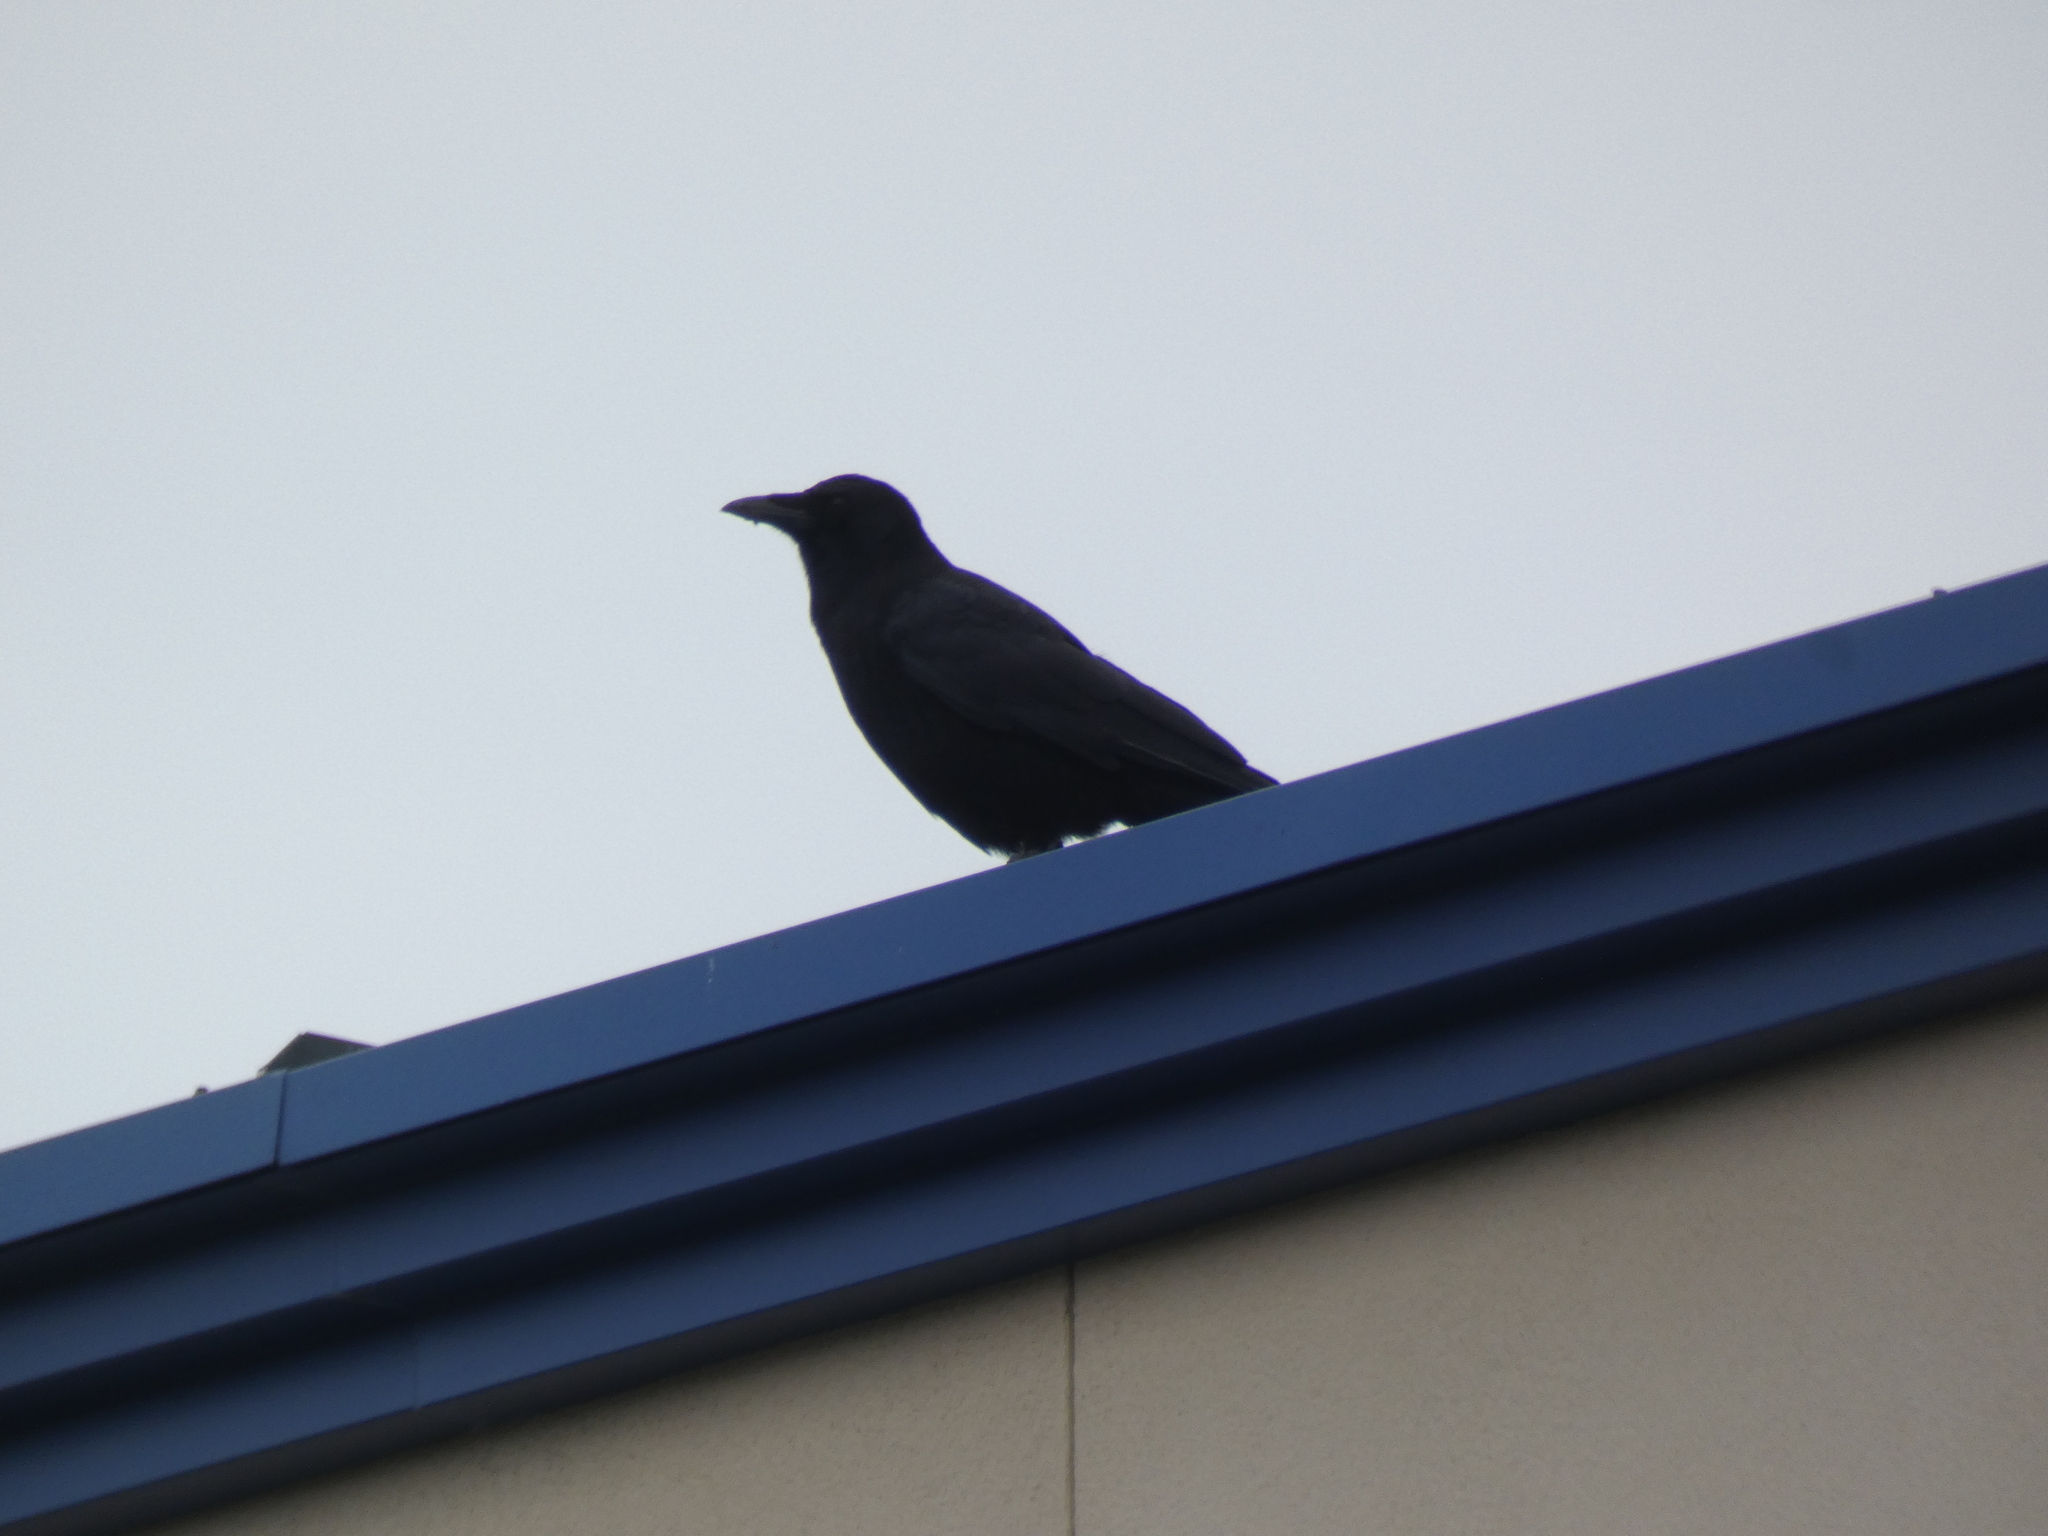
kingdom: Animalia
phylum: Chordata
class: Aves
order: Passeriformes
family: Corvidae
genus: Corvus
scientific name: Corvus brachyrhynchos
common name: American crow
